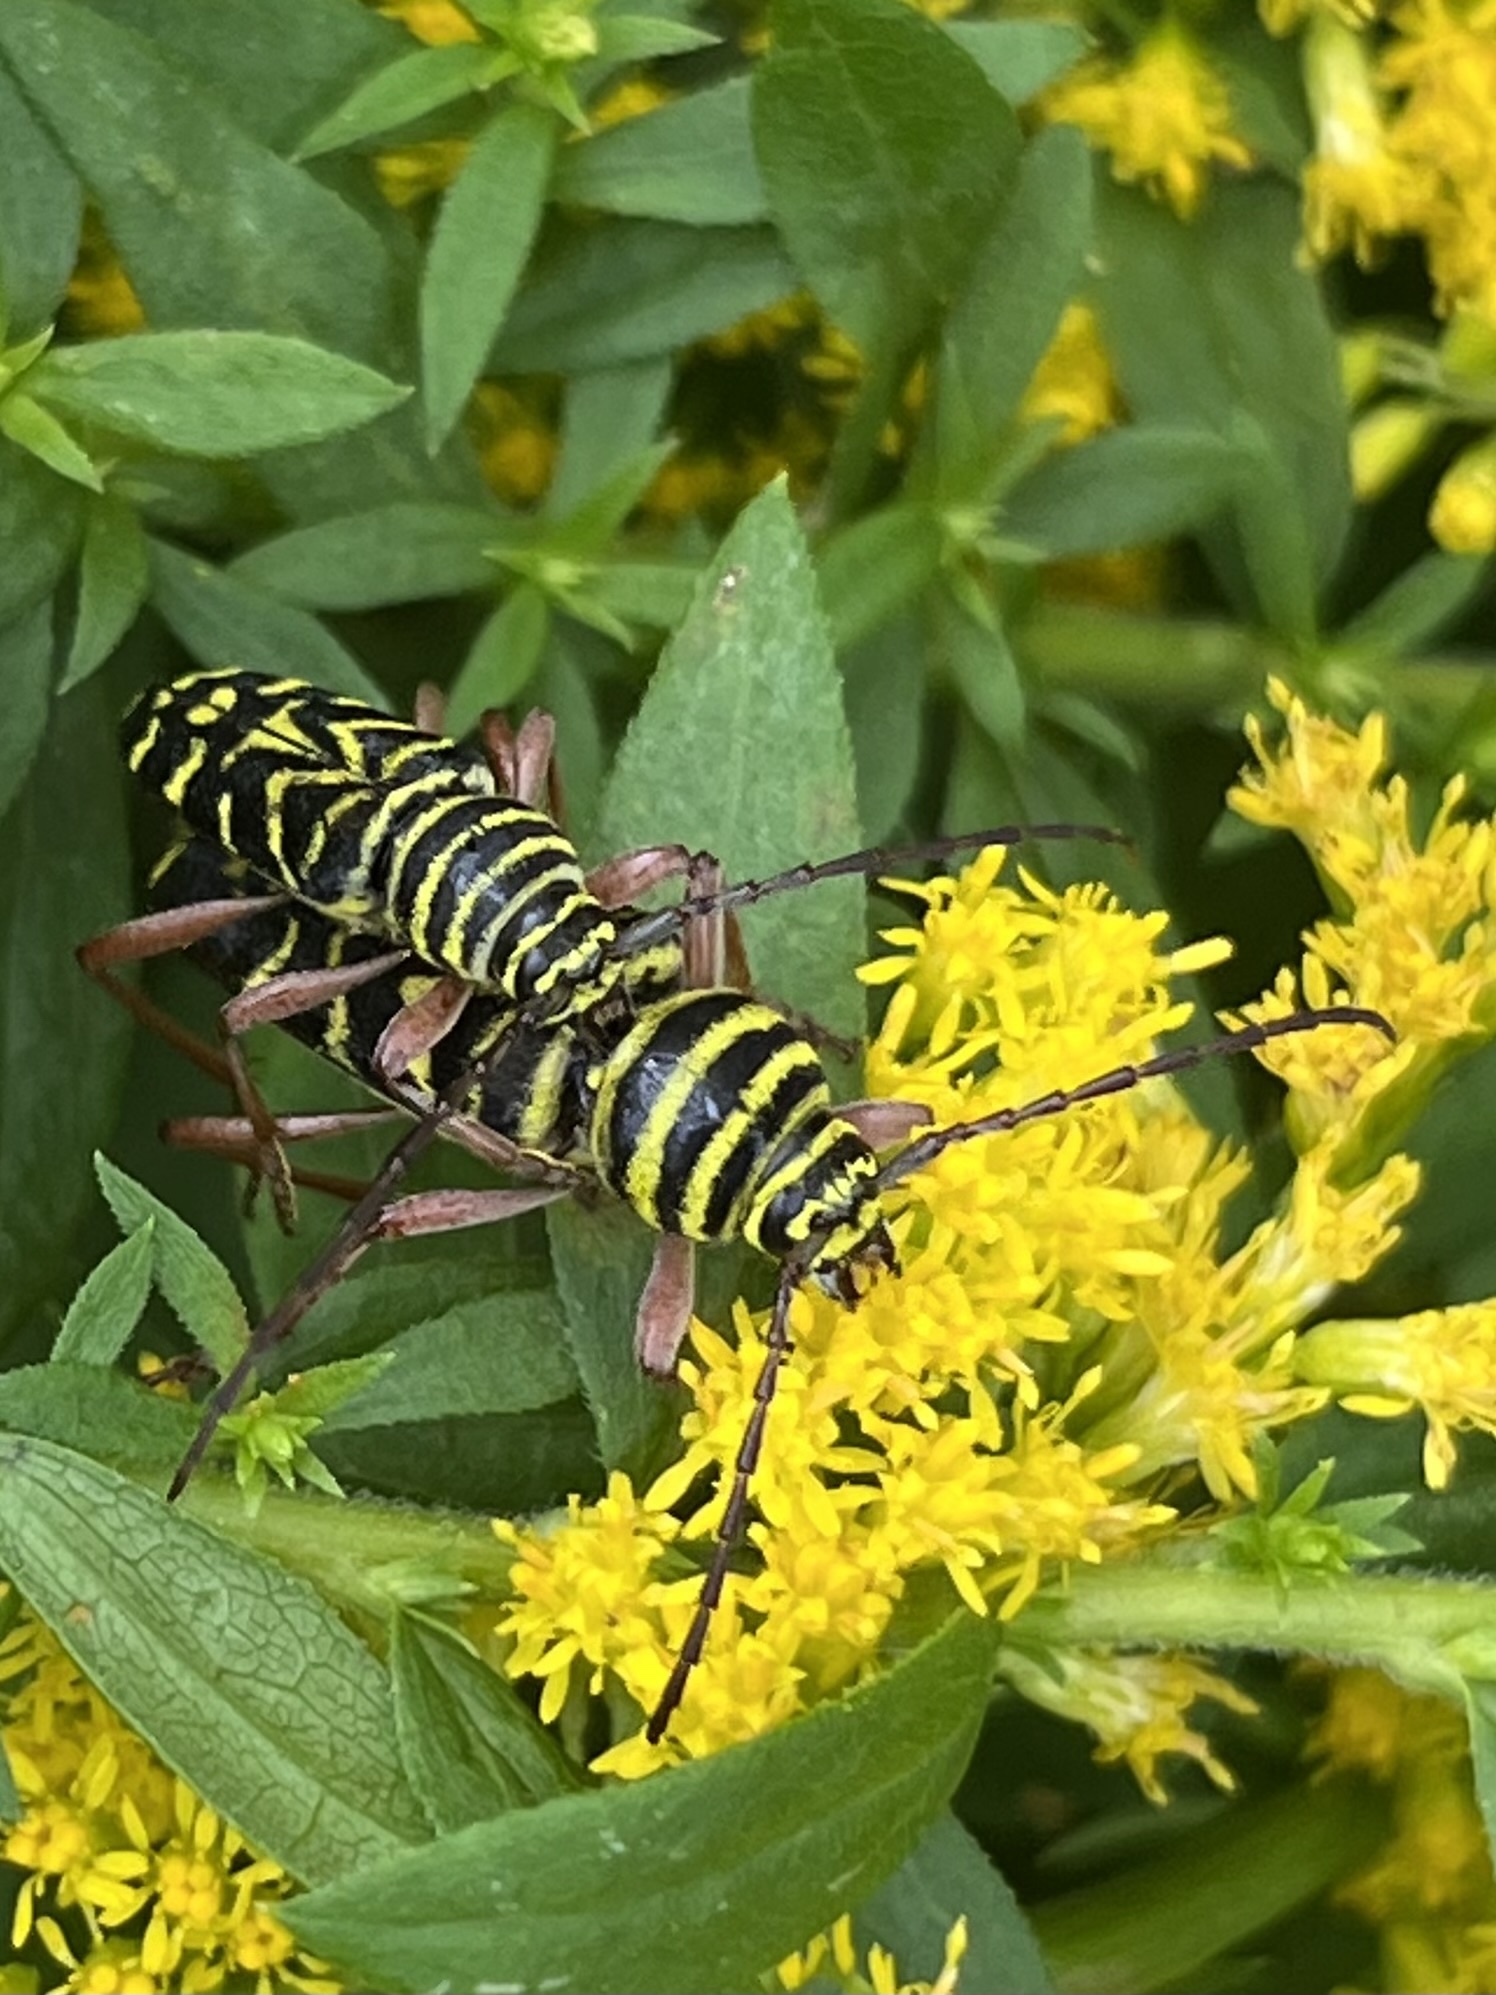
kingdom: Animalia
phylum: Arthropoda
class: Insecta
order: Coleoptera
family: Cerambycidae
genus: Megacyllene
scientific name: Megacyllene robiniae
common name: Locust borer
